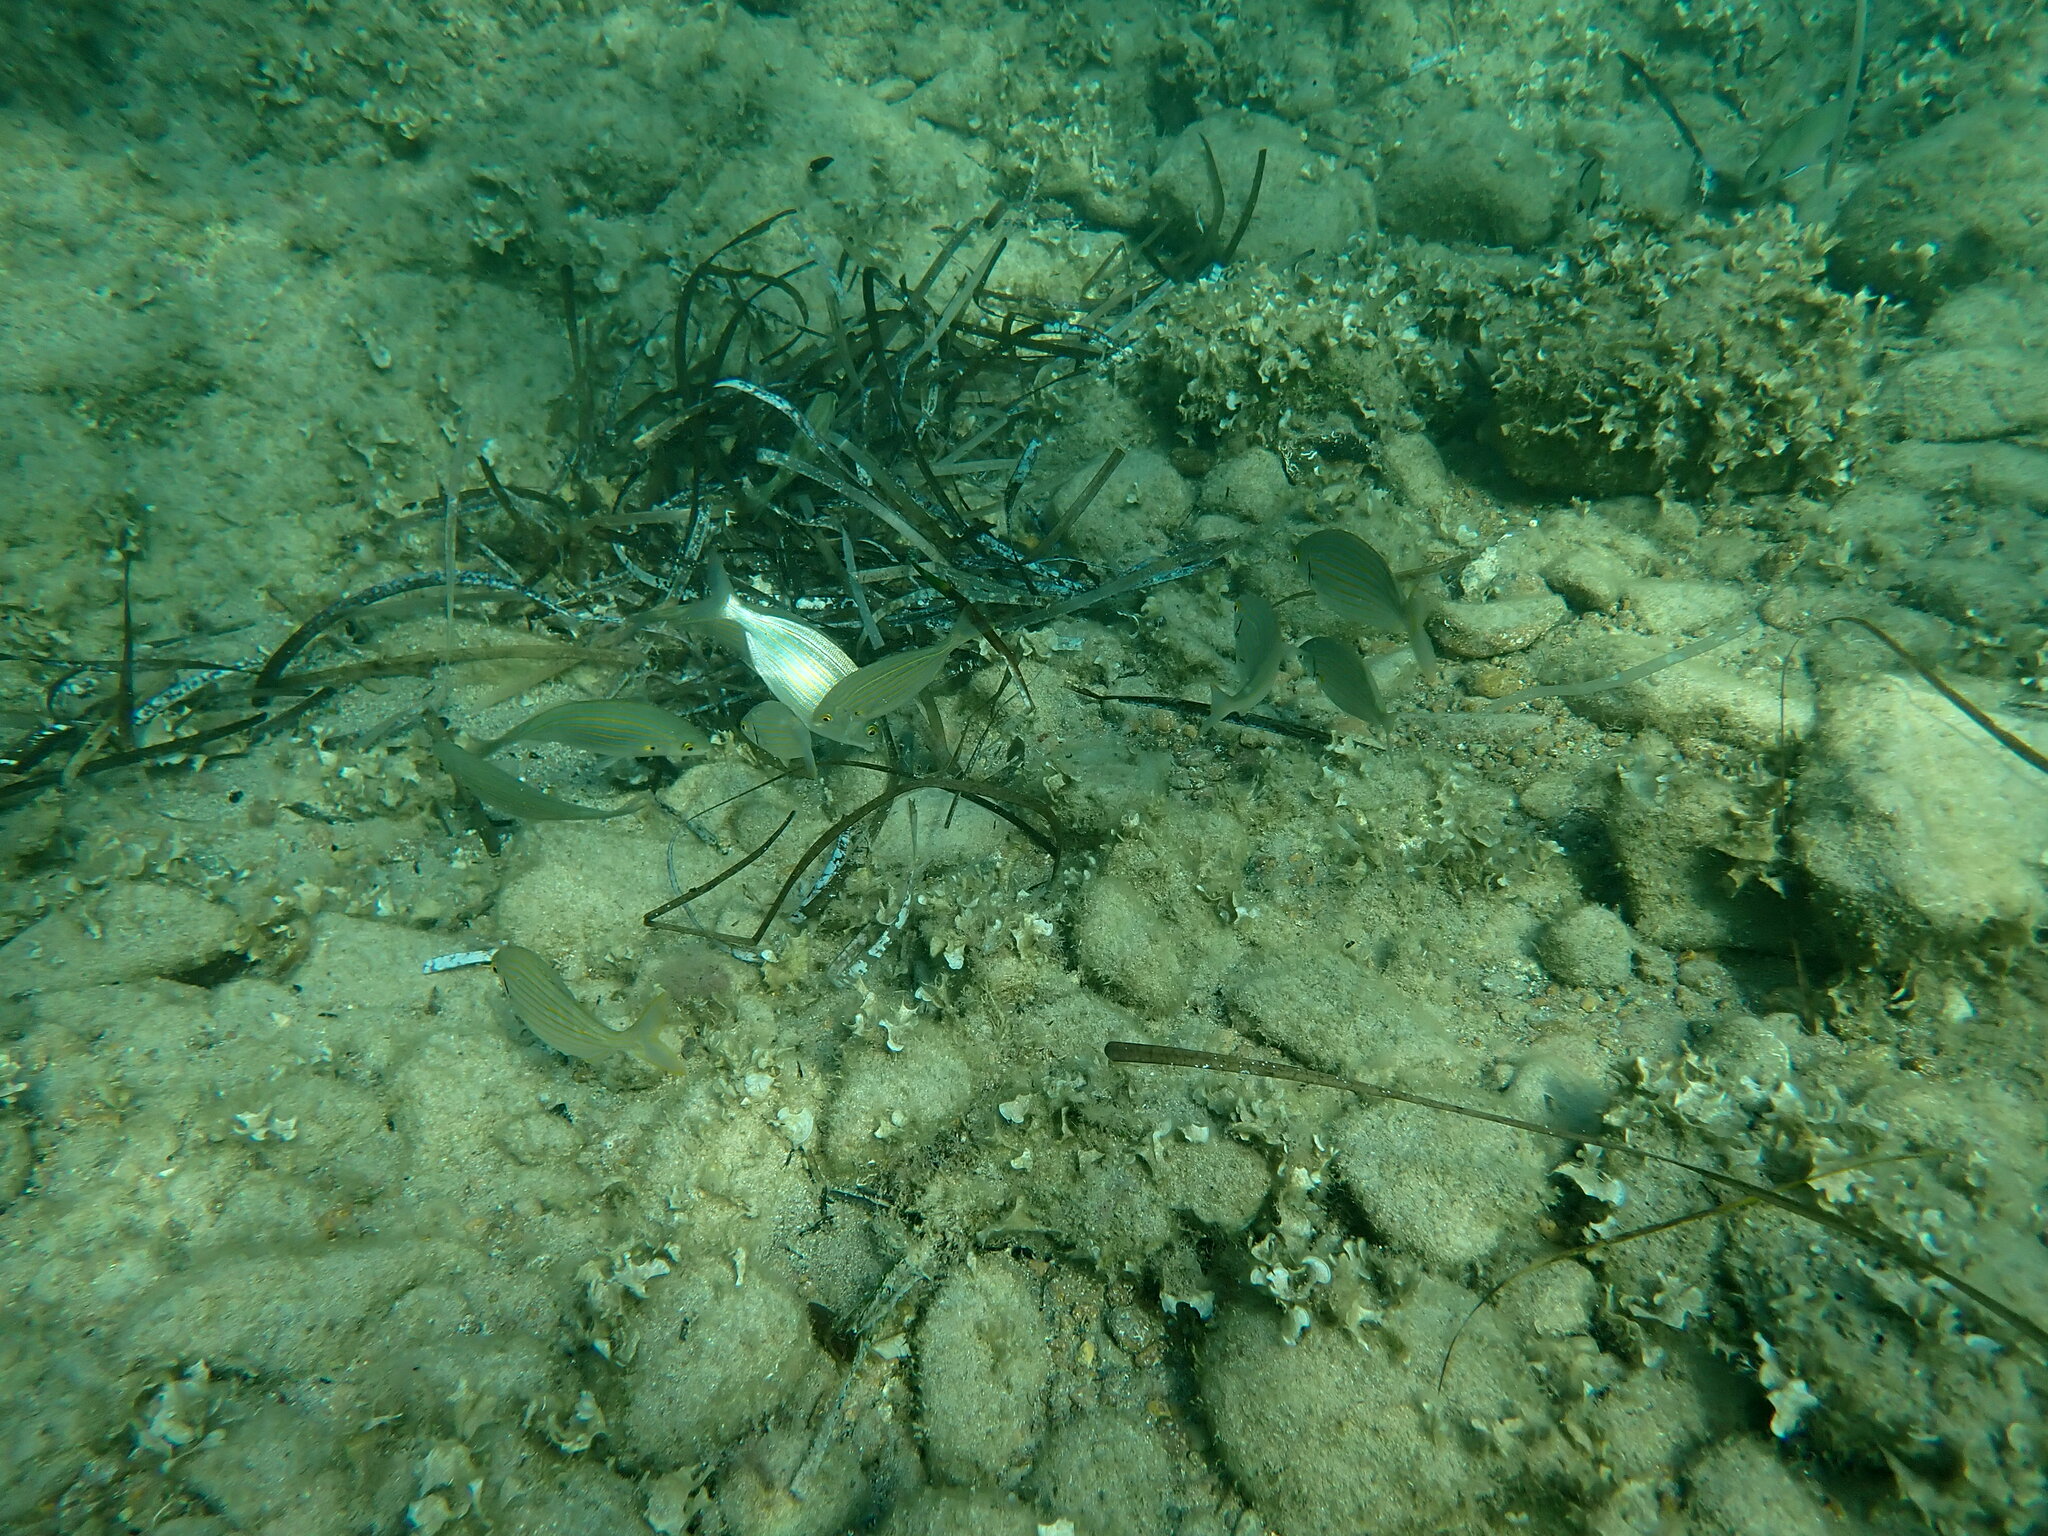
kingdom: Animalia
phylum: Chordata
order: Perciformes
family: Sparidae
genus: Sarpa
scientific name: Sarpa salpa
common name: Salema
